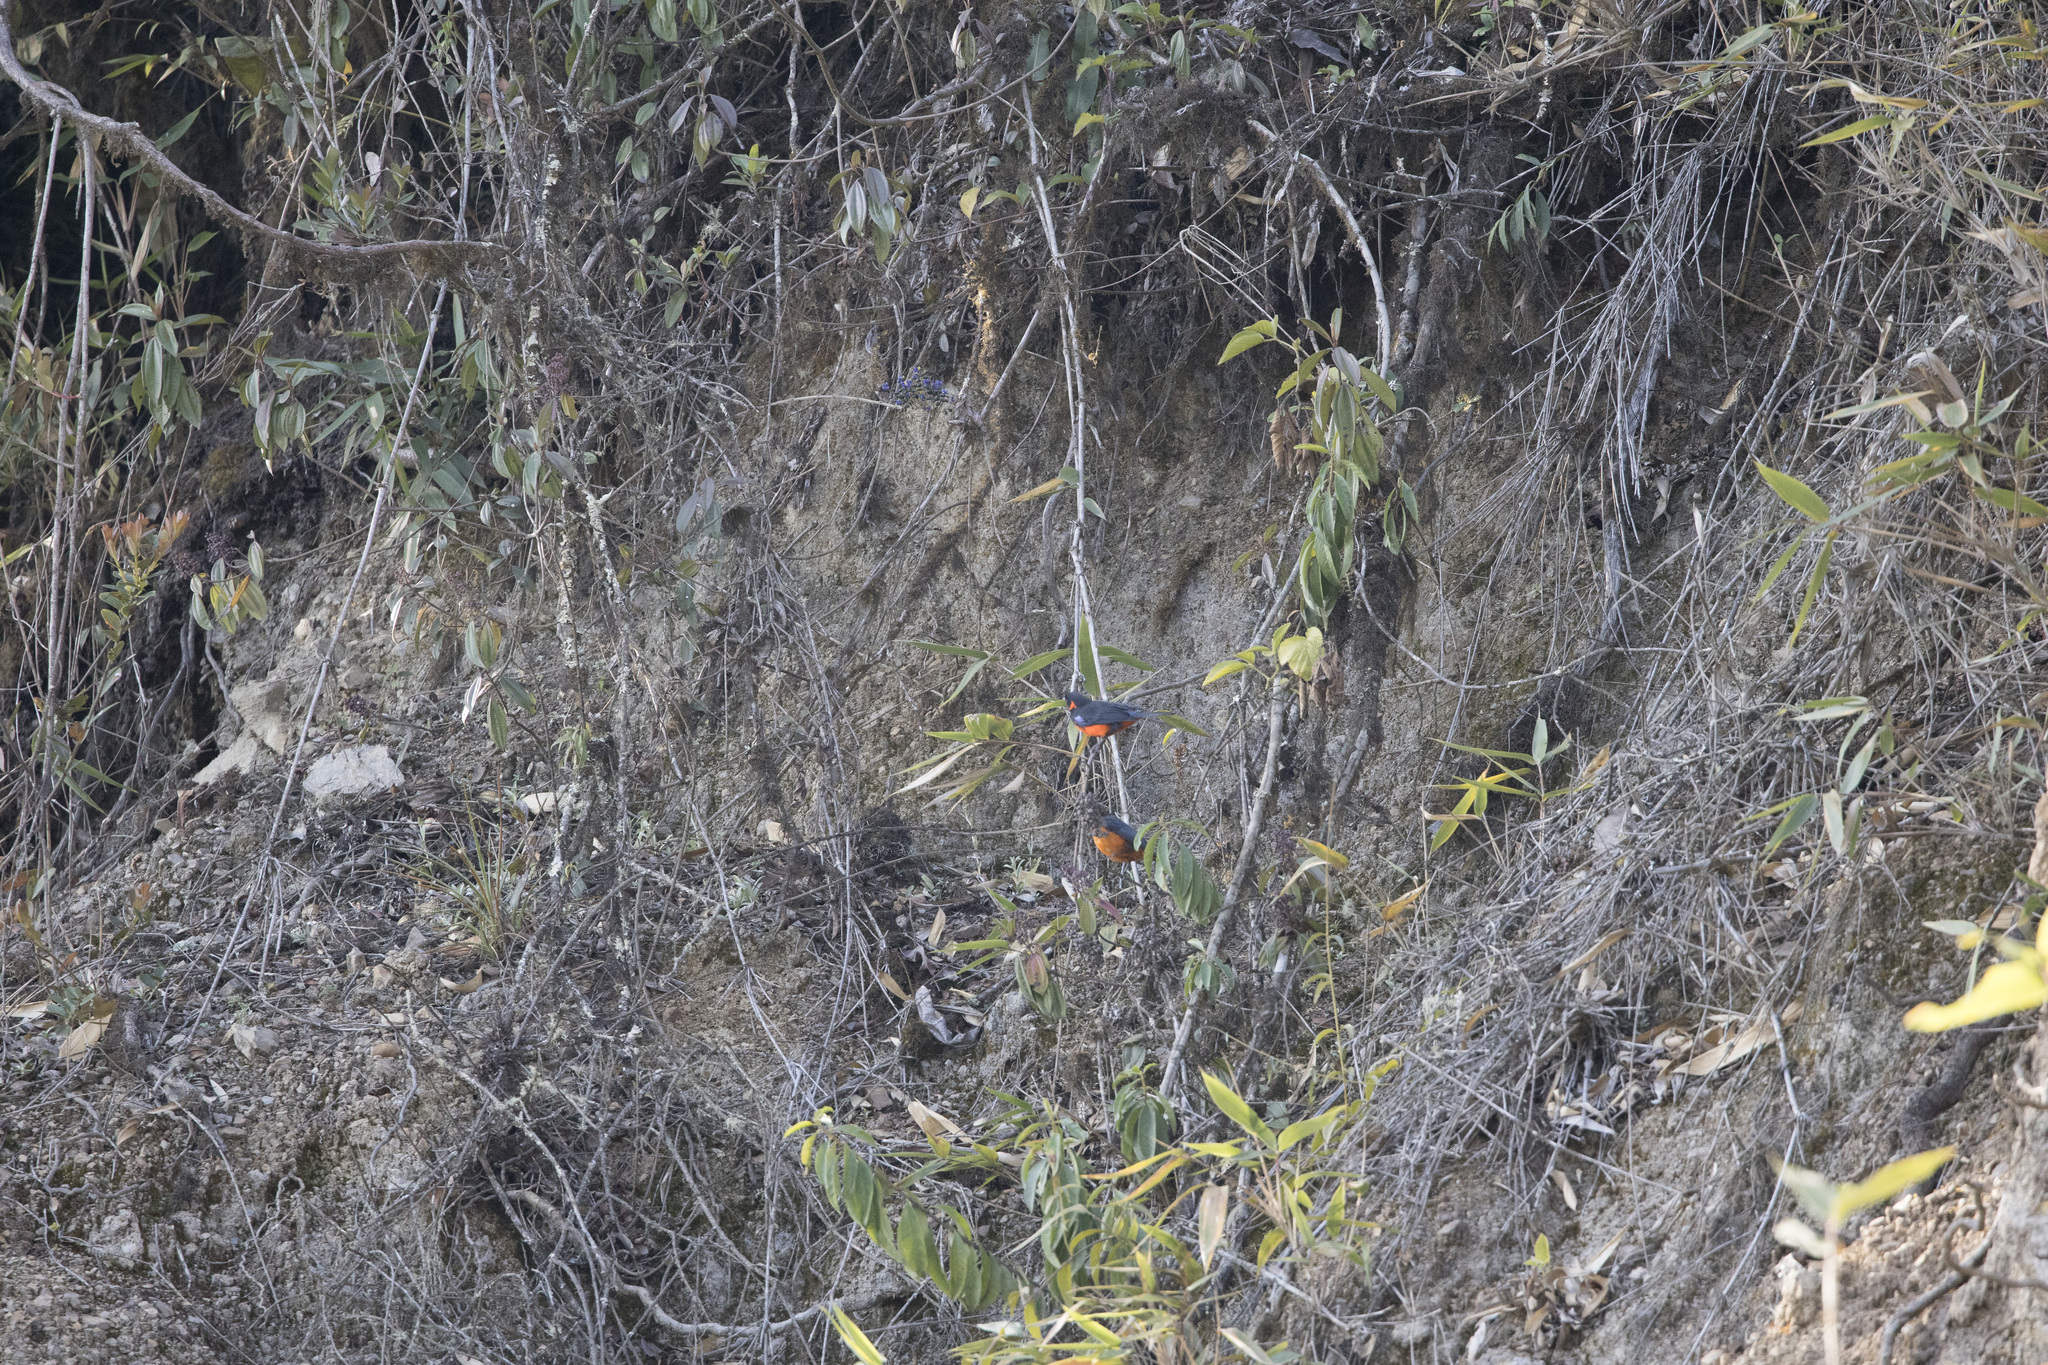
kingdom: Animalia
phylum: Chordata
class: Aves
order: Passeriformes
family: Thraupidae
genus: Anisognathus
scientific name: Anisognathus igniventris
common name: Scarlet-bellied mountain tanager
